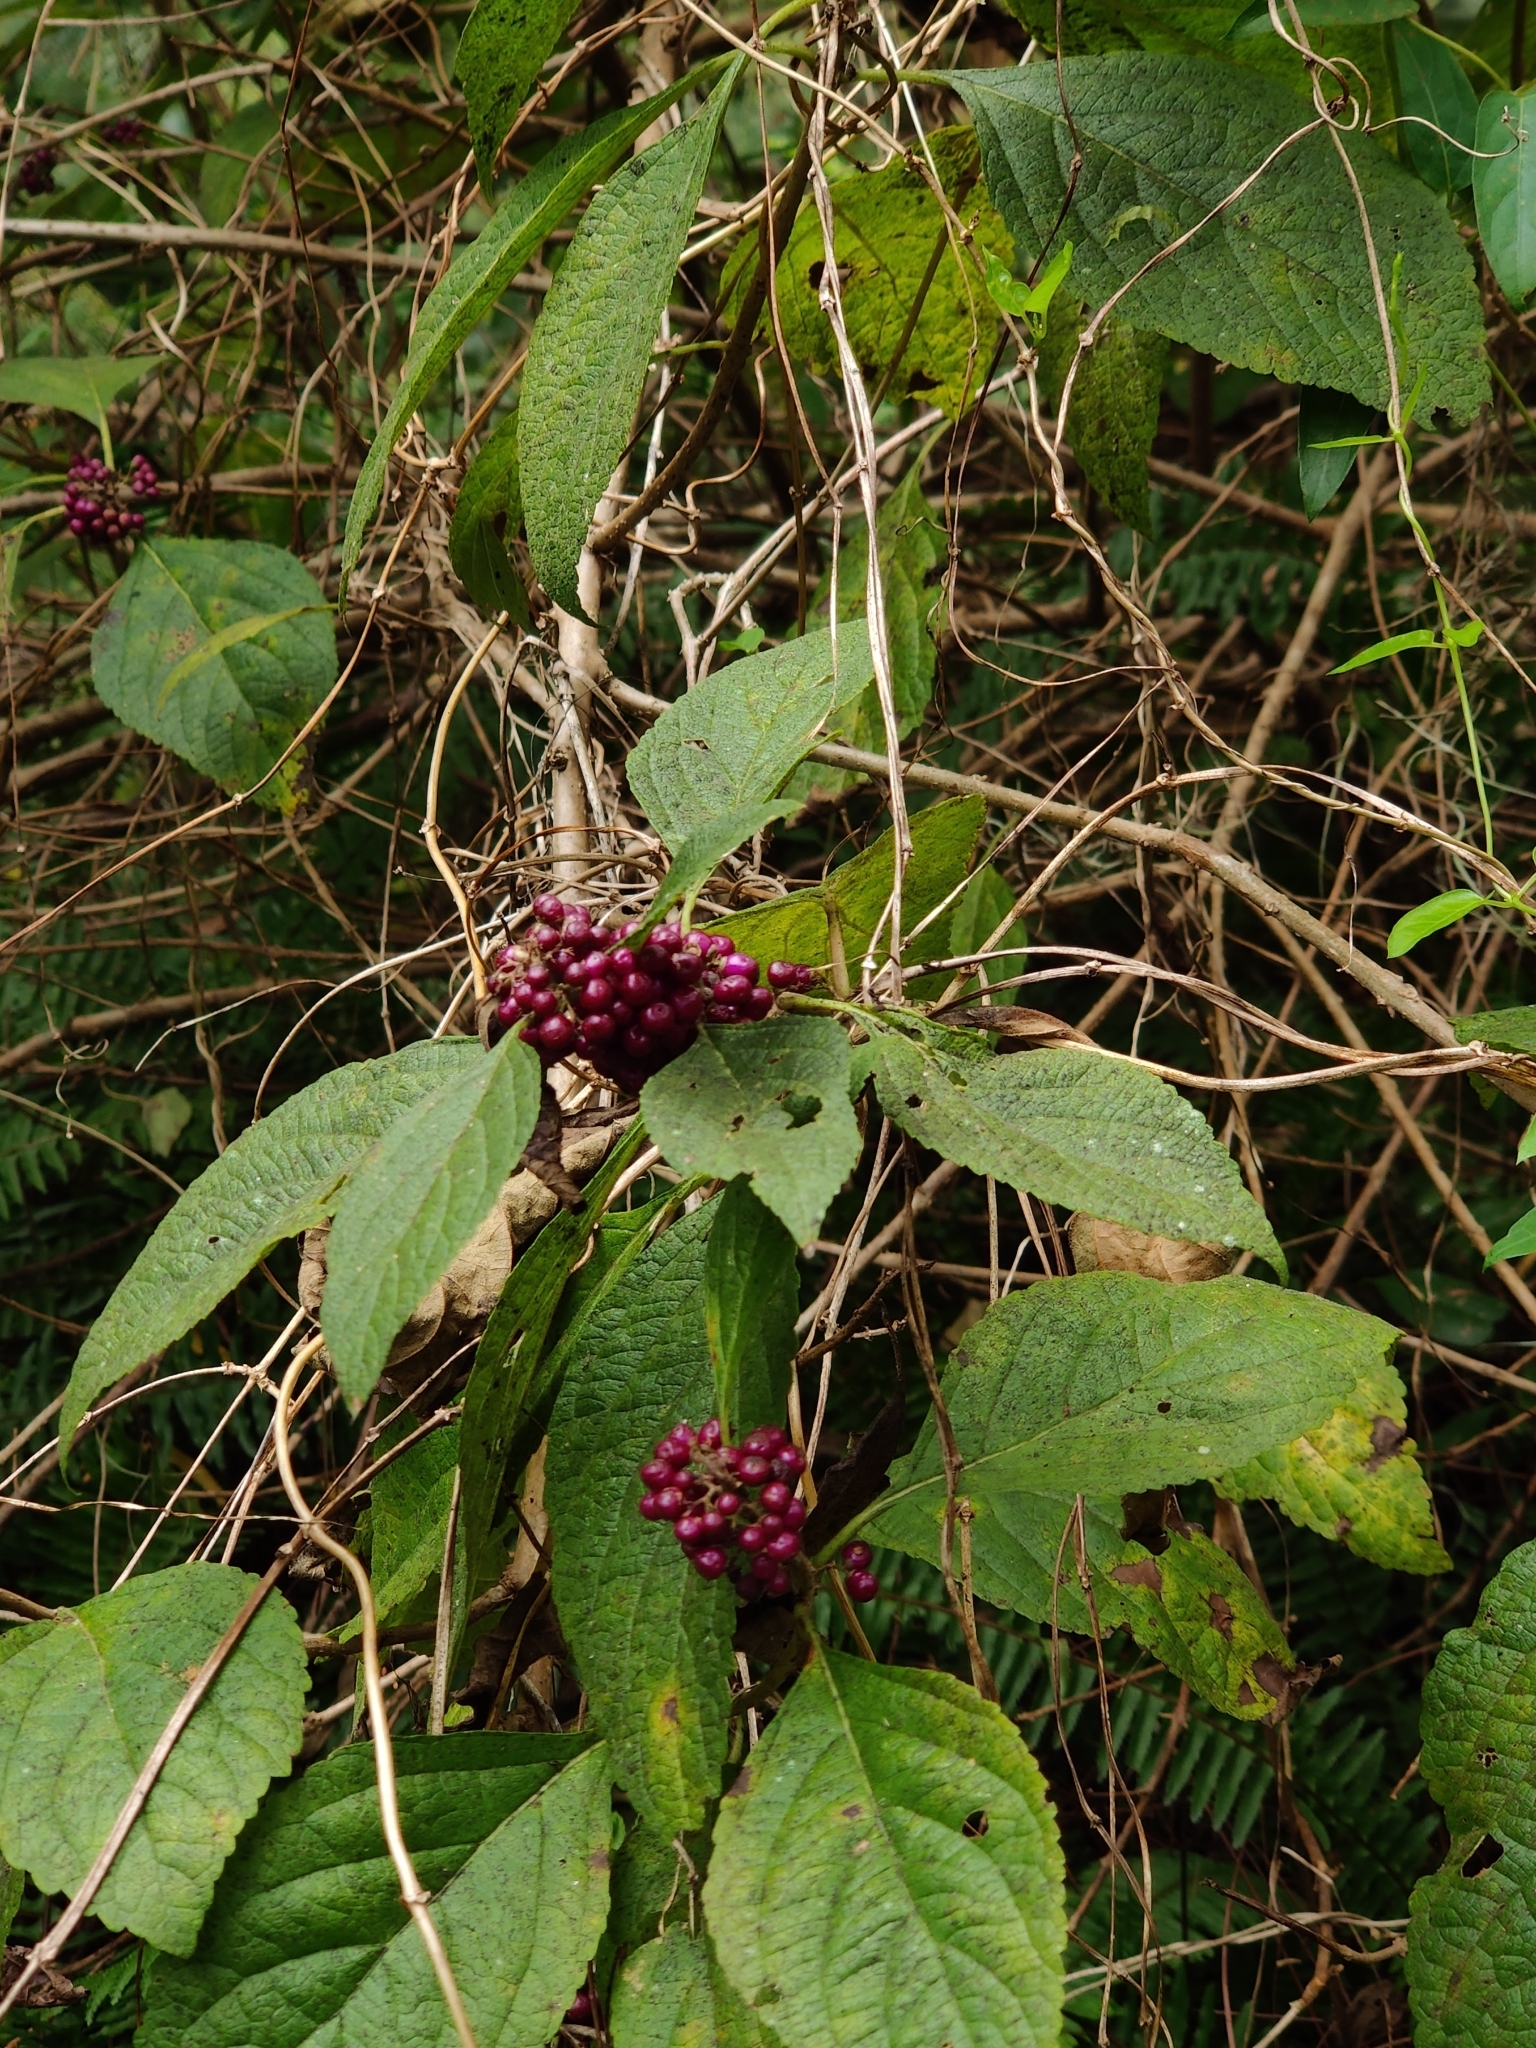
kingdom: Plantae
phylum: Tracheophyta
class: Magnoliopsida
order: Lamiales
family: Lamiaceae
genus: Callicarpa
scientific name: Callicarpa americana
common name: American beautyberry
